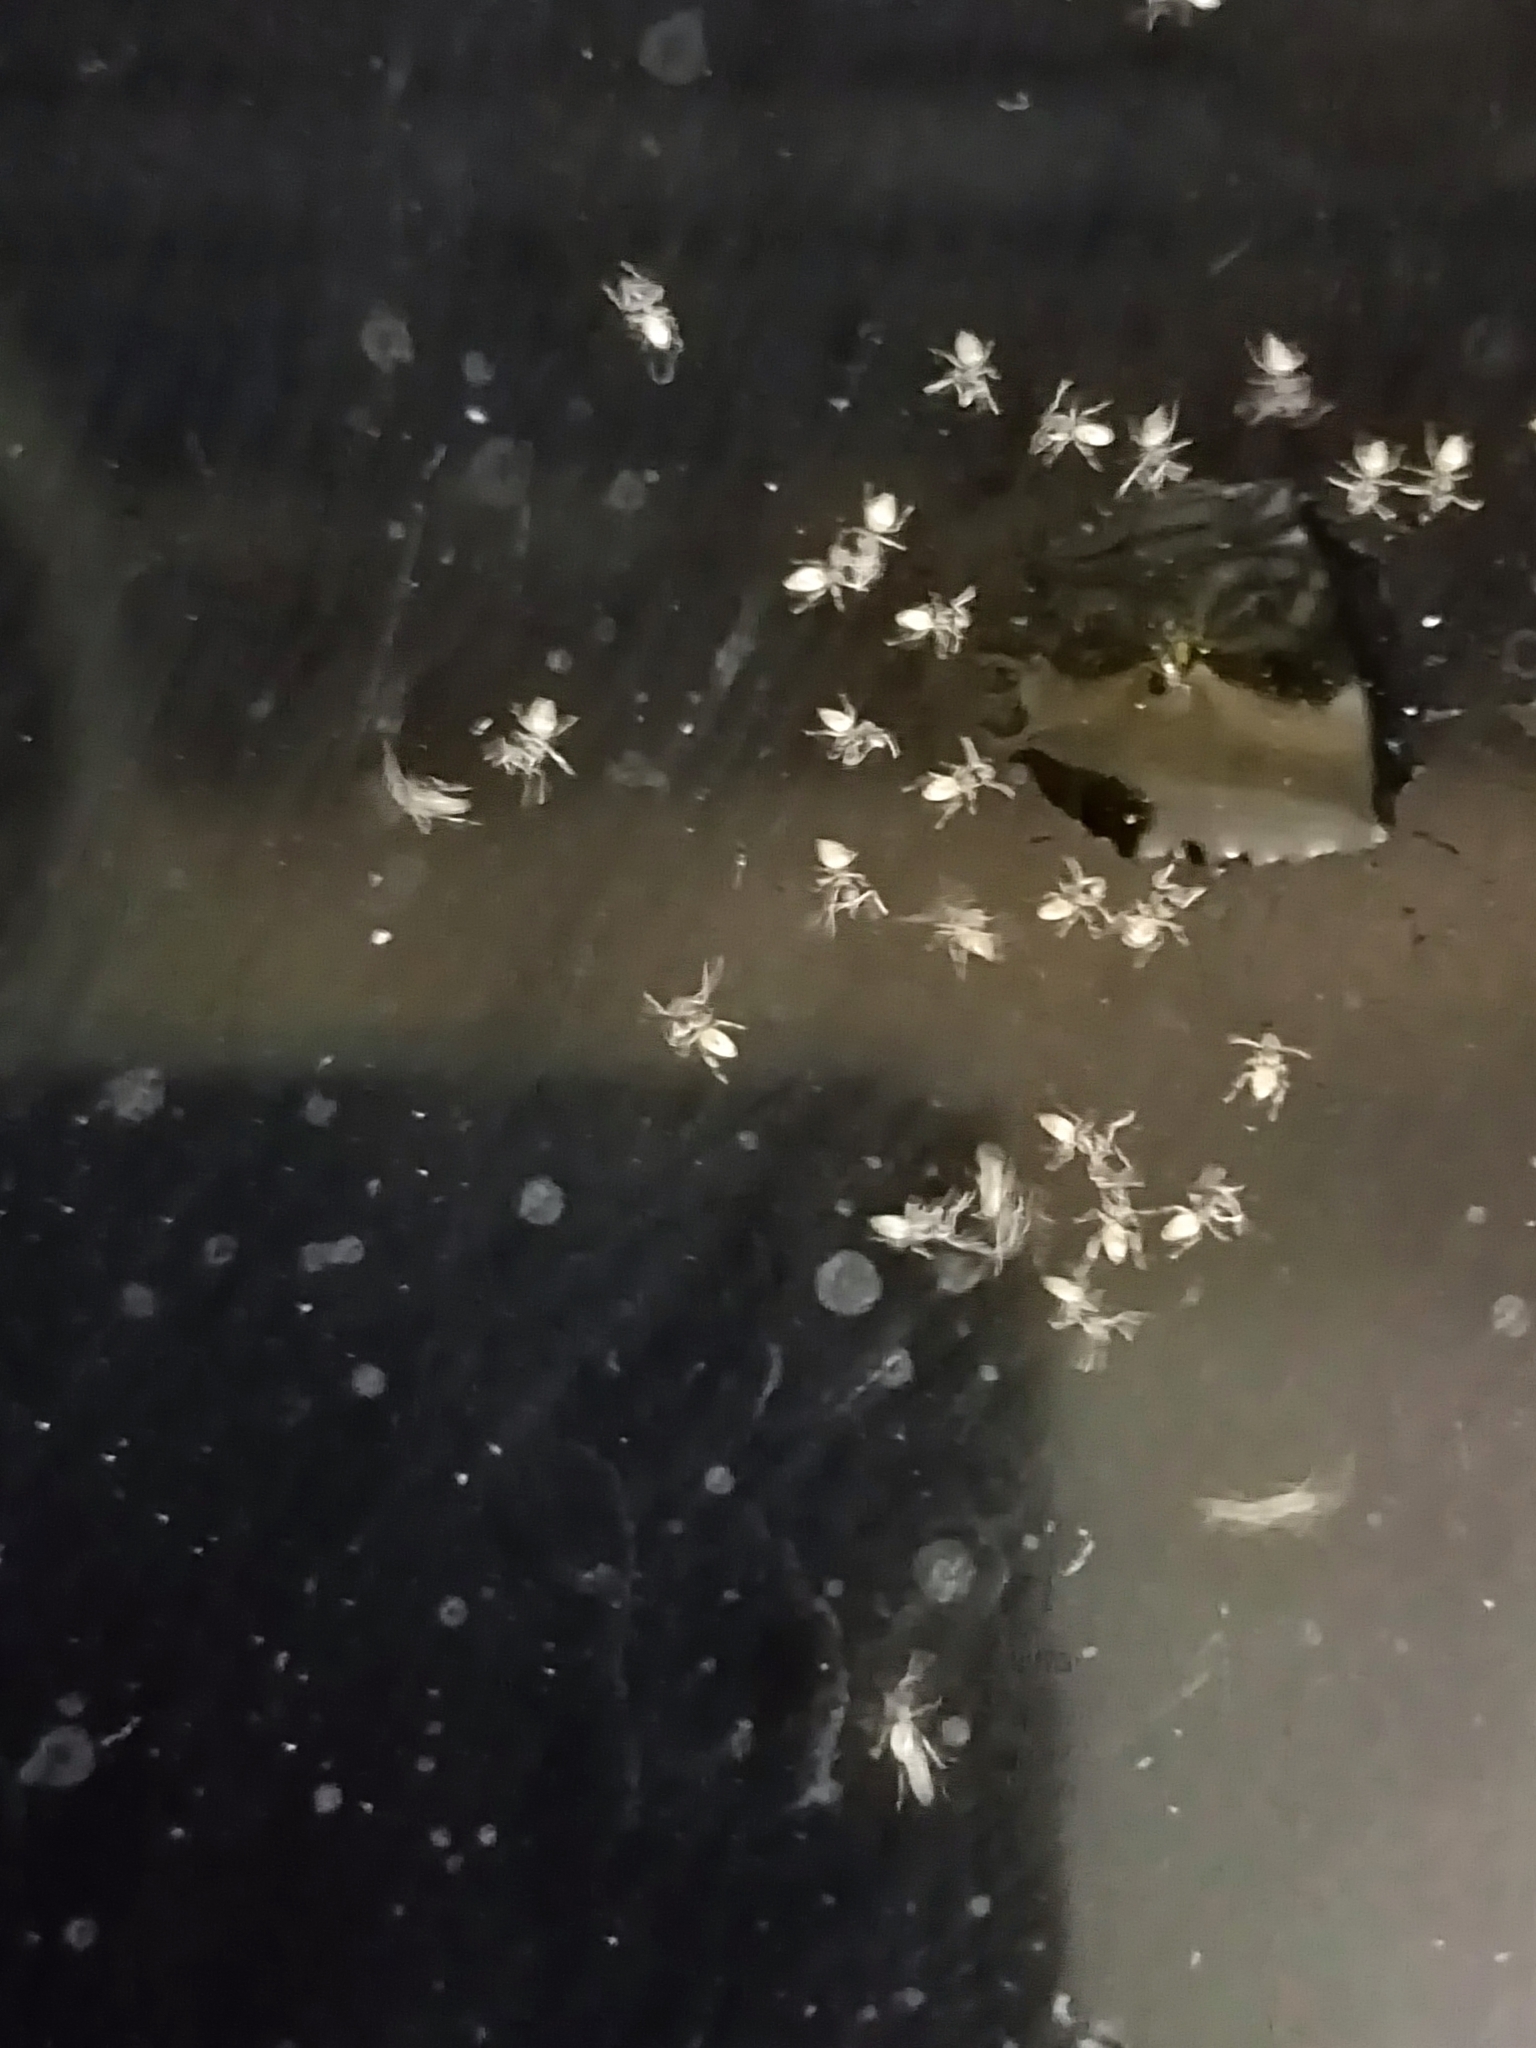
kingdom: Animalia
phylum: Arthropoda
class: Insecta
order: Hymenoptera
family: Formicidae
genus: Tapinoma
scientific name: Tapinoma melanocephalum
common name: Ghost ant
